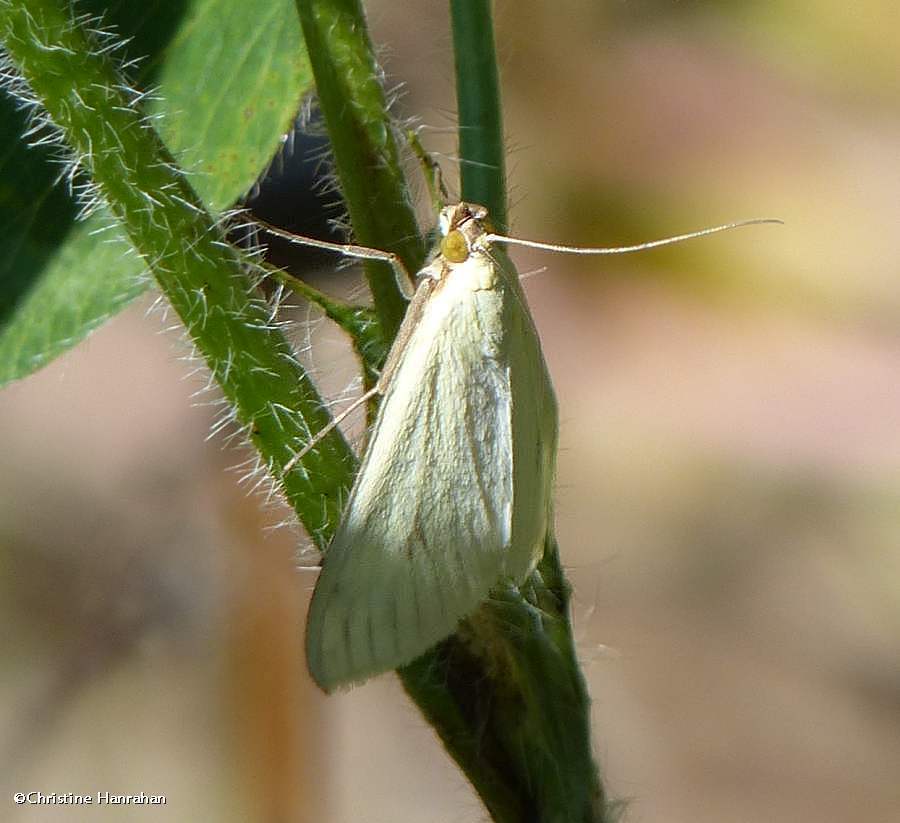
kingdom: Animalia
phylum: Arthropoda
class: Insecta
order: Lepidoptera
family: Crambidae
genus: Sitochroa
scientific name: Sitochroa palealis
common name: Greenish-yellow sitochroa moth
